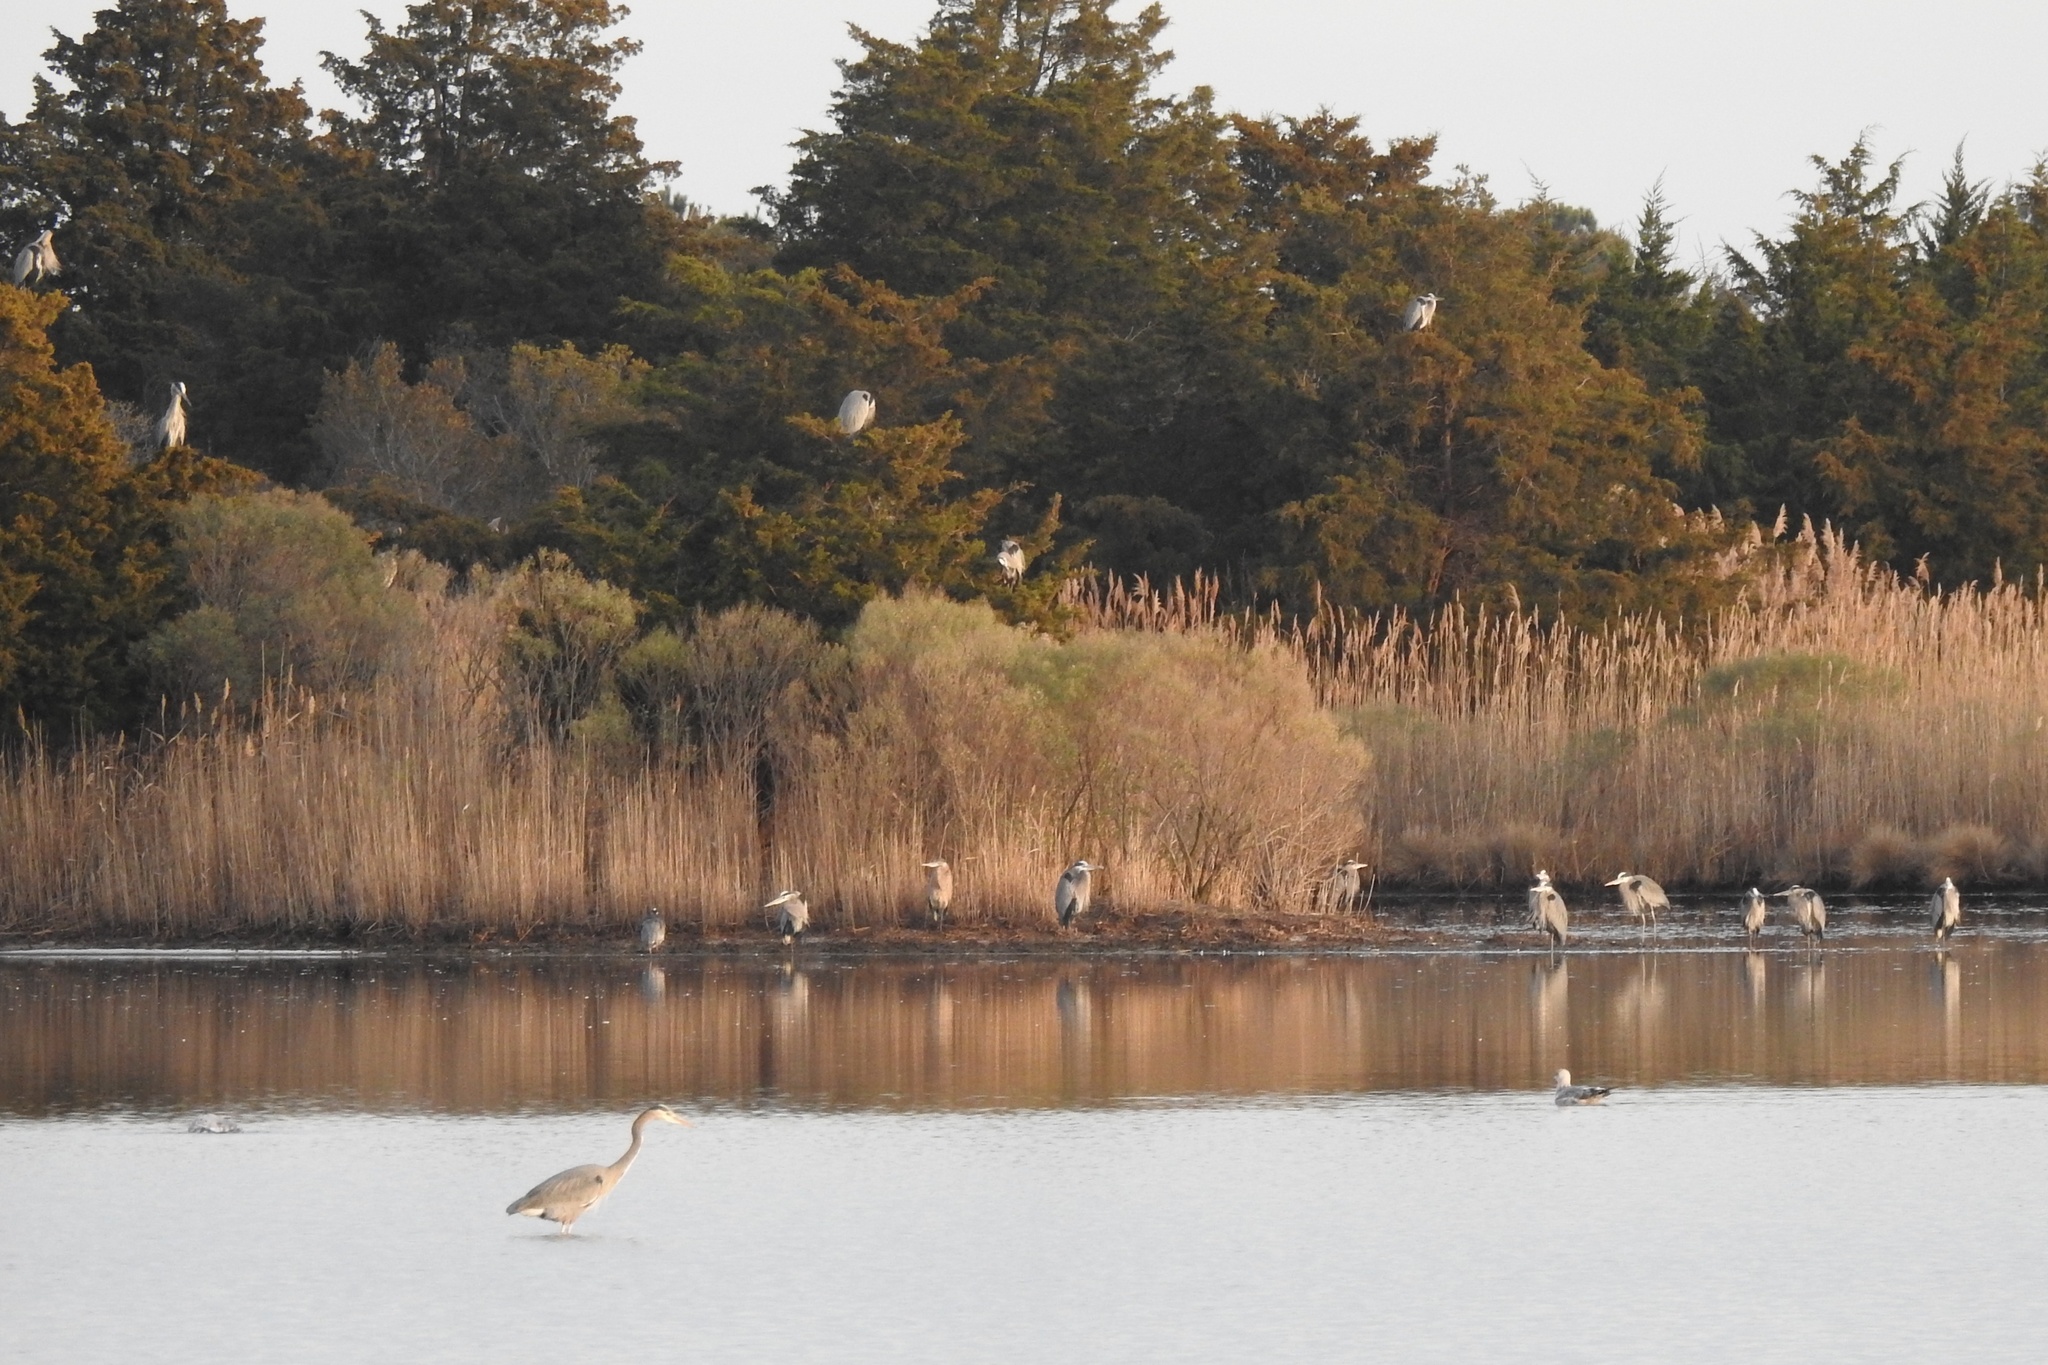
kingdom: Animalia
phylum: Chordata
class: Aves
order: Pelecaniformes
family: Ardeidae
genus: Ardea
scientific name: Ardea herodias
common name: Great blue heron
